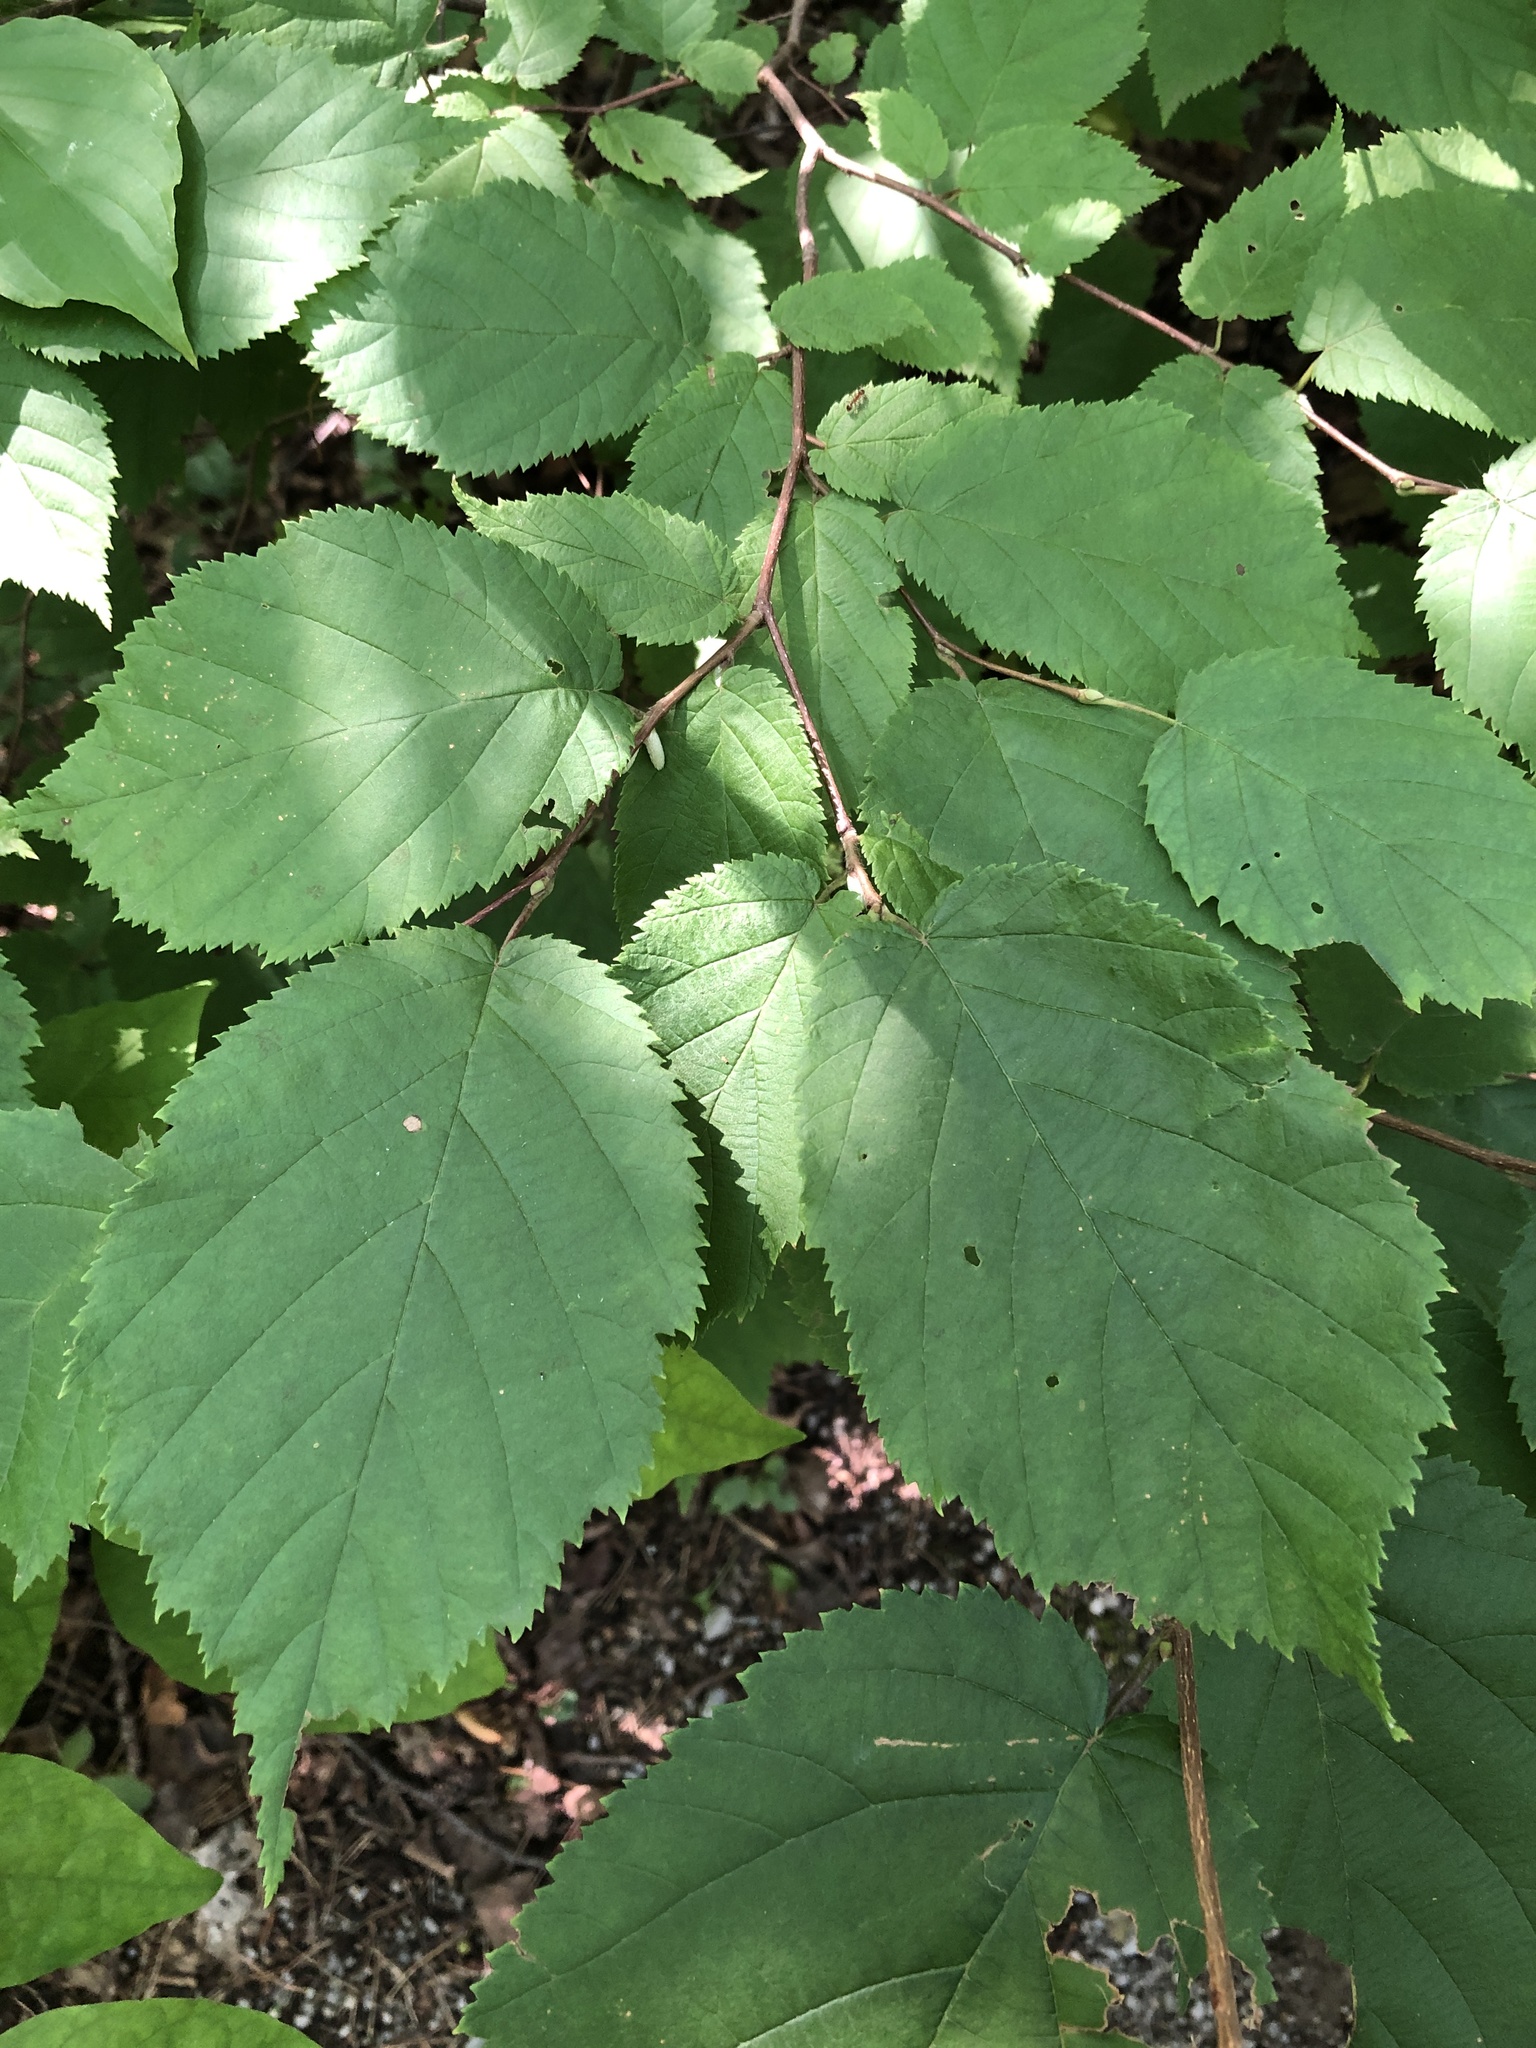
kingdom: Plantae
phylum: Tracheophyta
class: Magnoliopsida
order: Fagales
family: Betulaceae
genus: Corylus
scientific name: Corylus cornuta
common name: Beaked hazel
